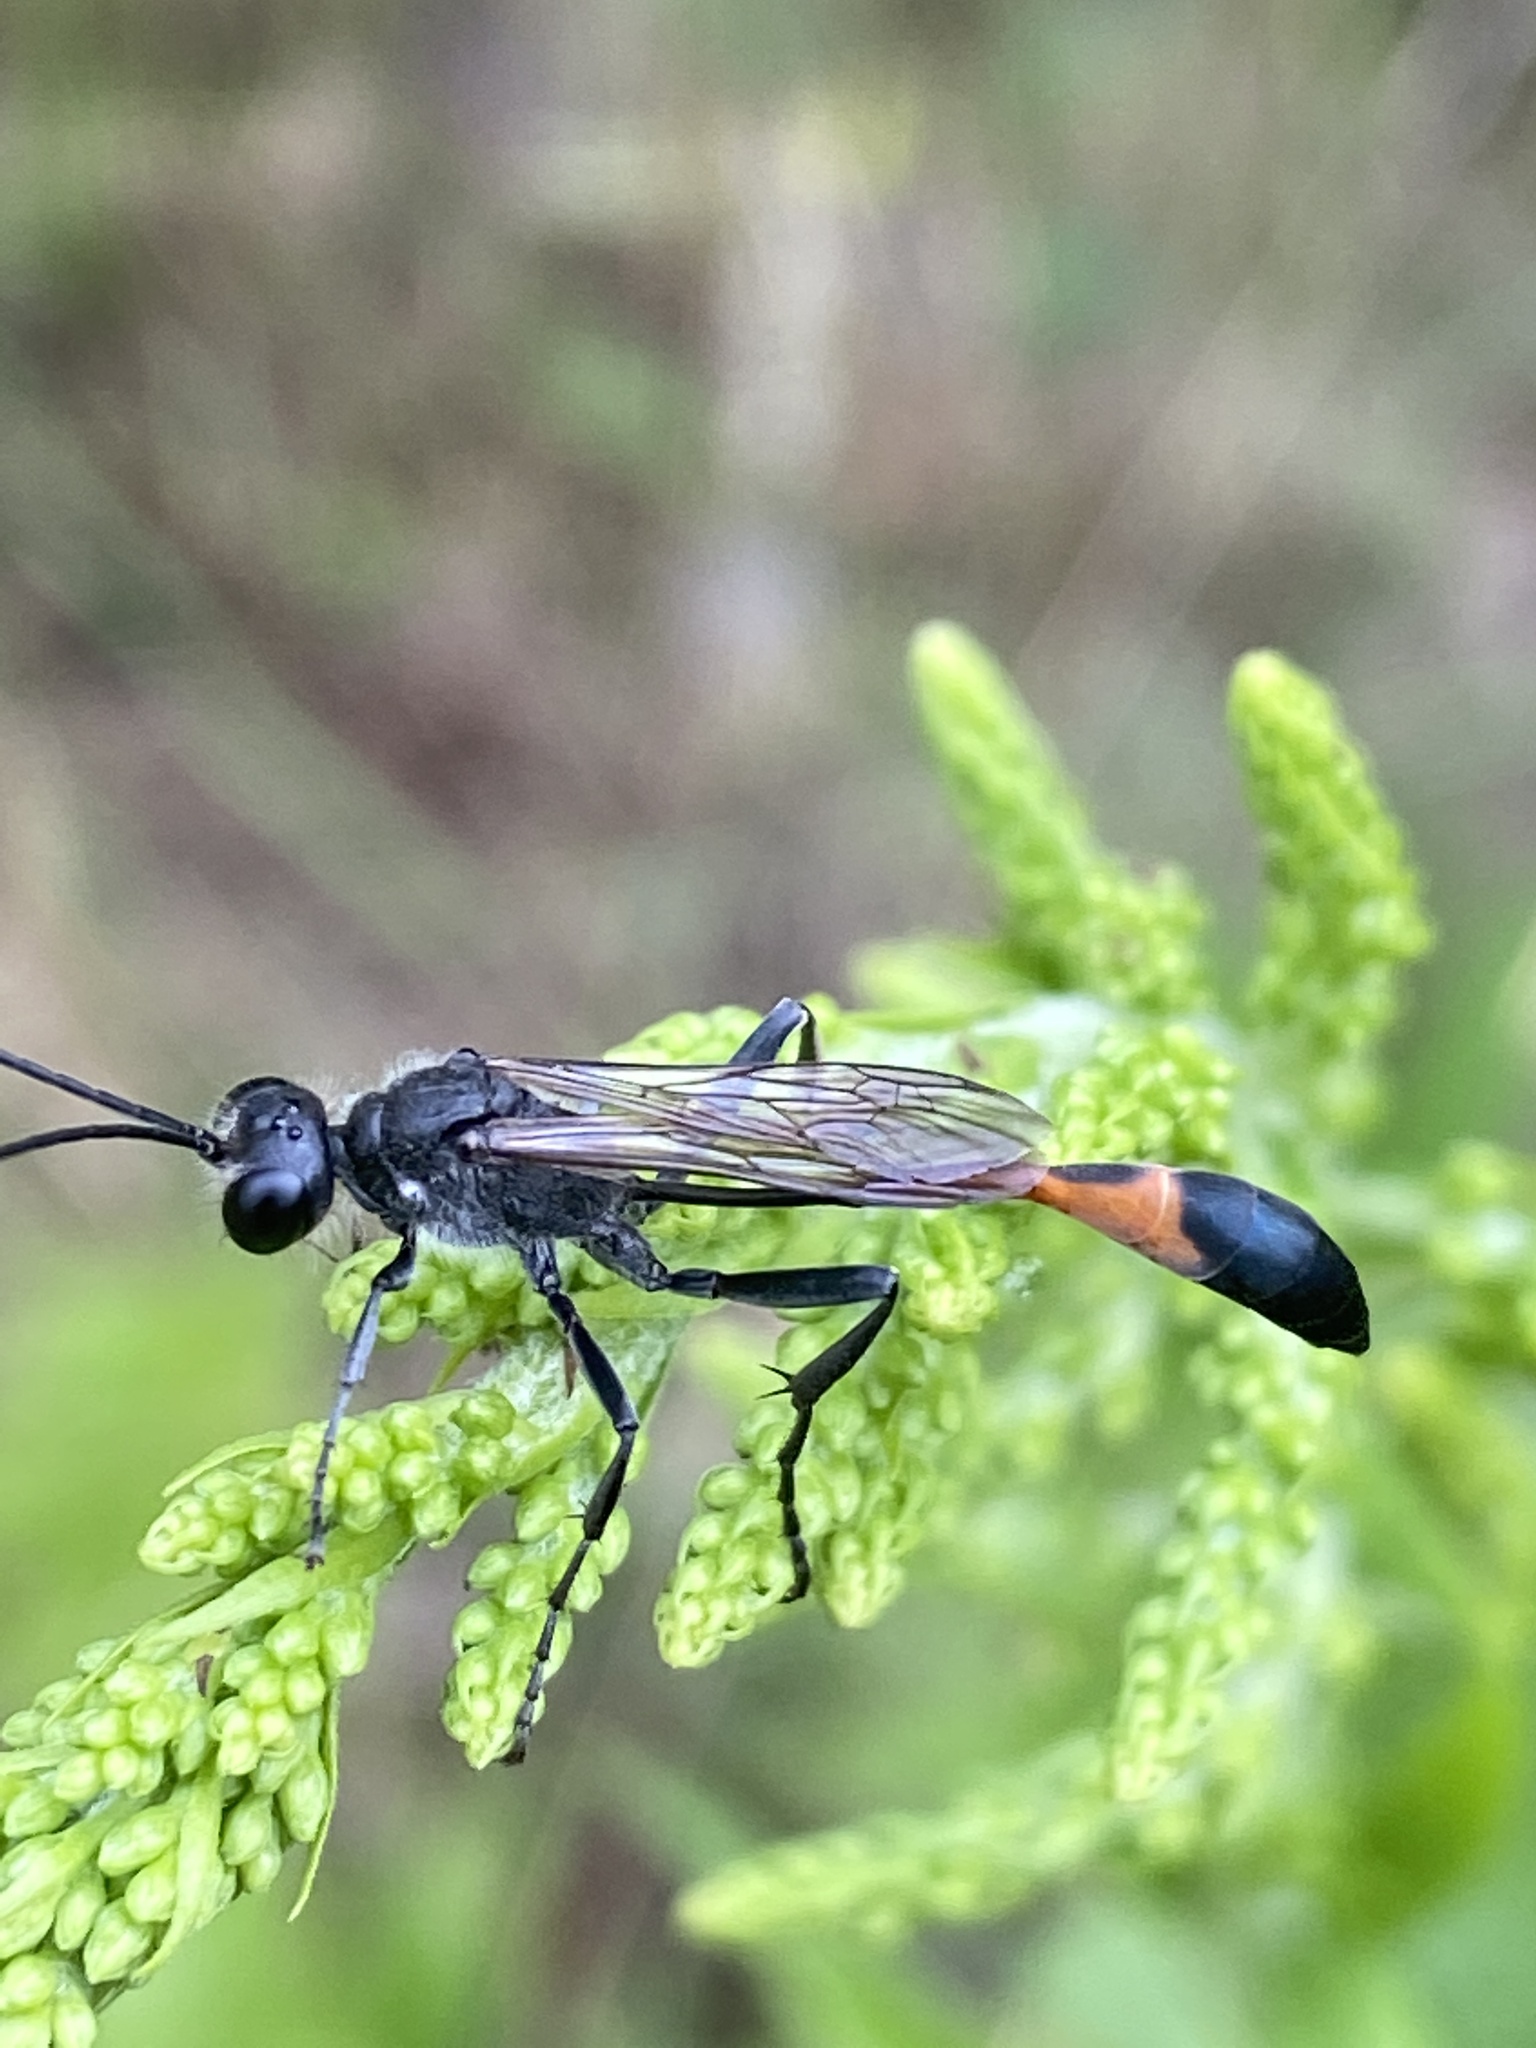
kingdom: Animalia
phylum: Arthropoda
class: Insecta
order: Hymenoptera
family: Sphecidae
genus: Ammophila
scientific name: Ammophila sabulosa
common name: Red banded sand wasp
